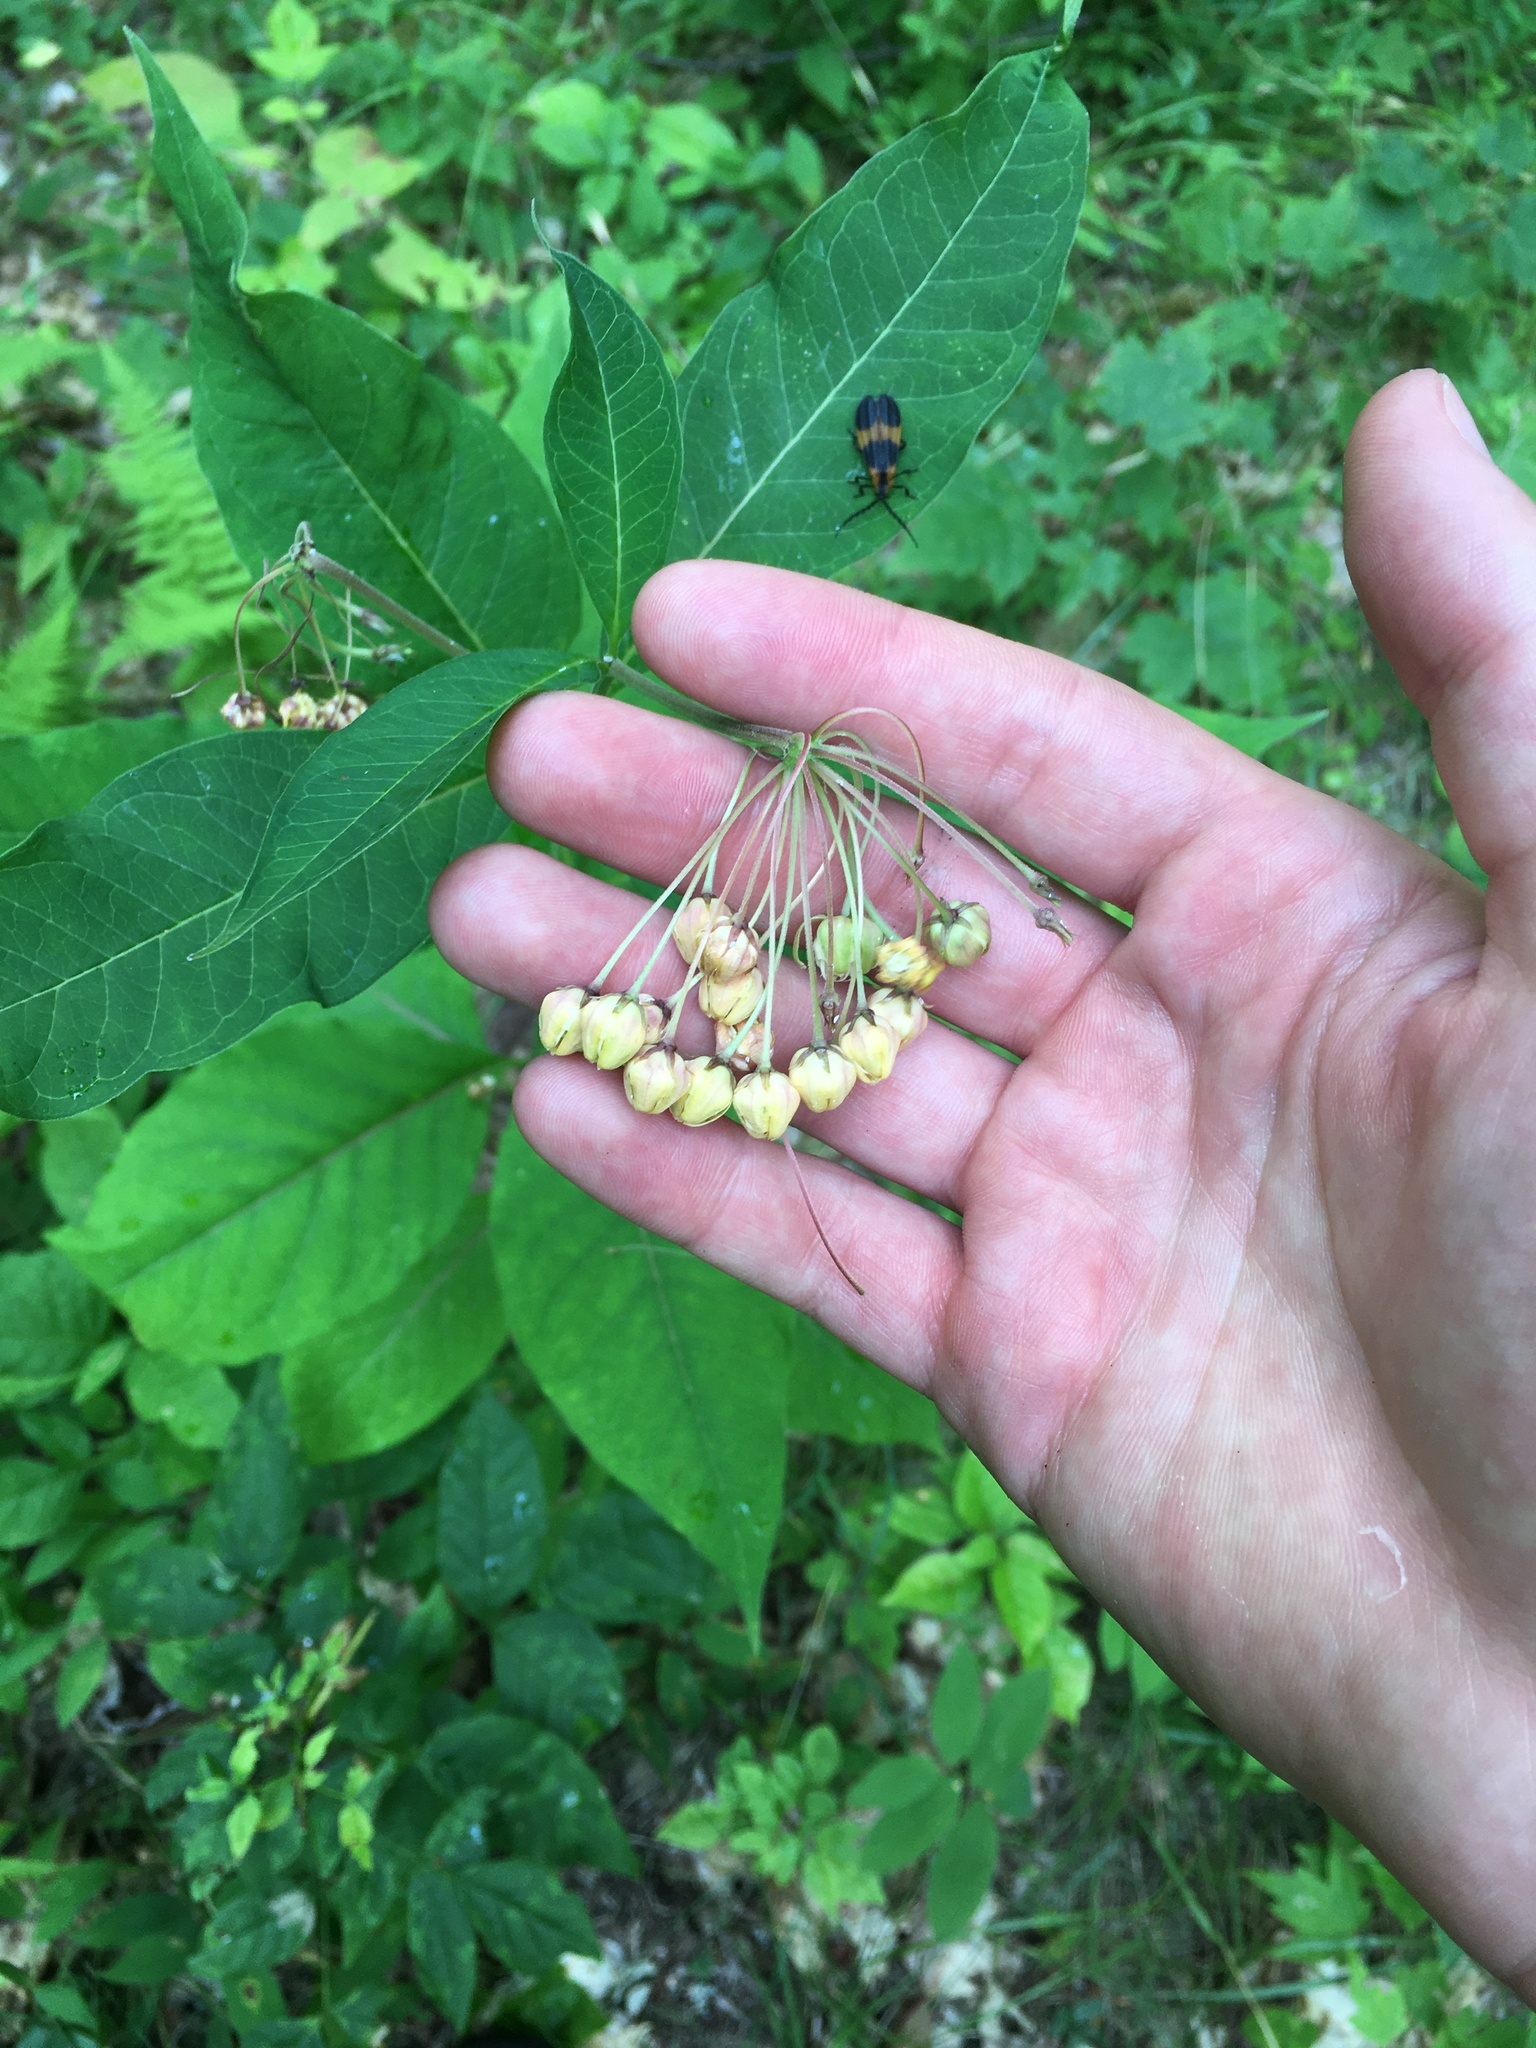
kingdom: Plantae
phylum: Tracheophyta
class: Magnoliopsida
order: Gentianales
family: Apocynaceae
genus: Asclepias
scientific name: Asclepias exaltata
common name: Poke milkweed
